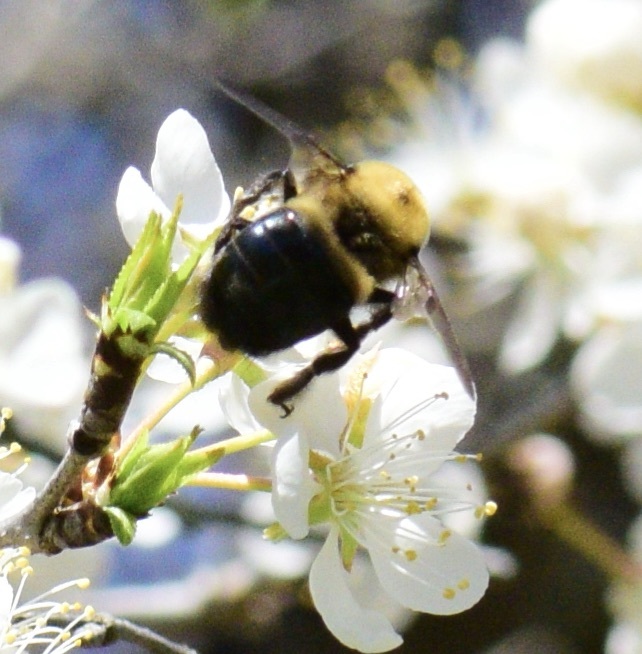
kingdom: Animalia
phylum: Arthropoda
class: Insecta
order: Hymenoptera
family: Apidae
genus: Xylocopa
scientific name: Xylocopa virginica
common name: Carpenter bee
